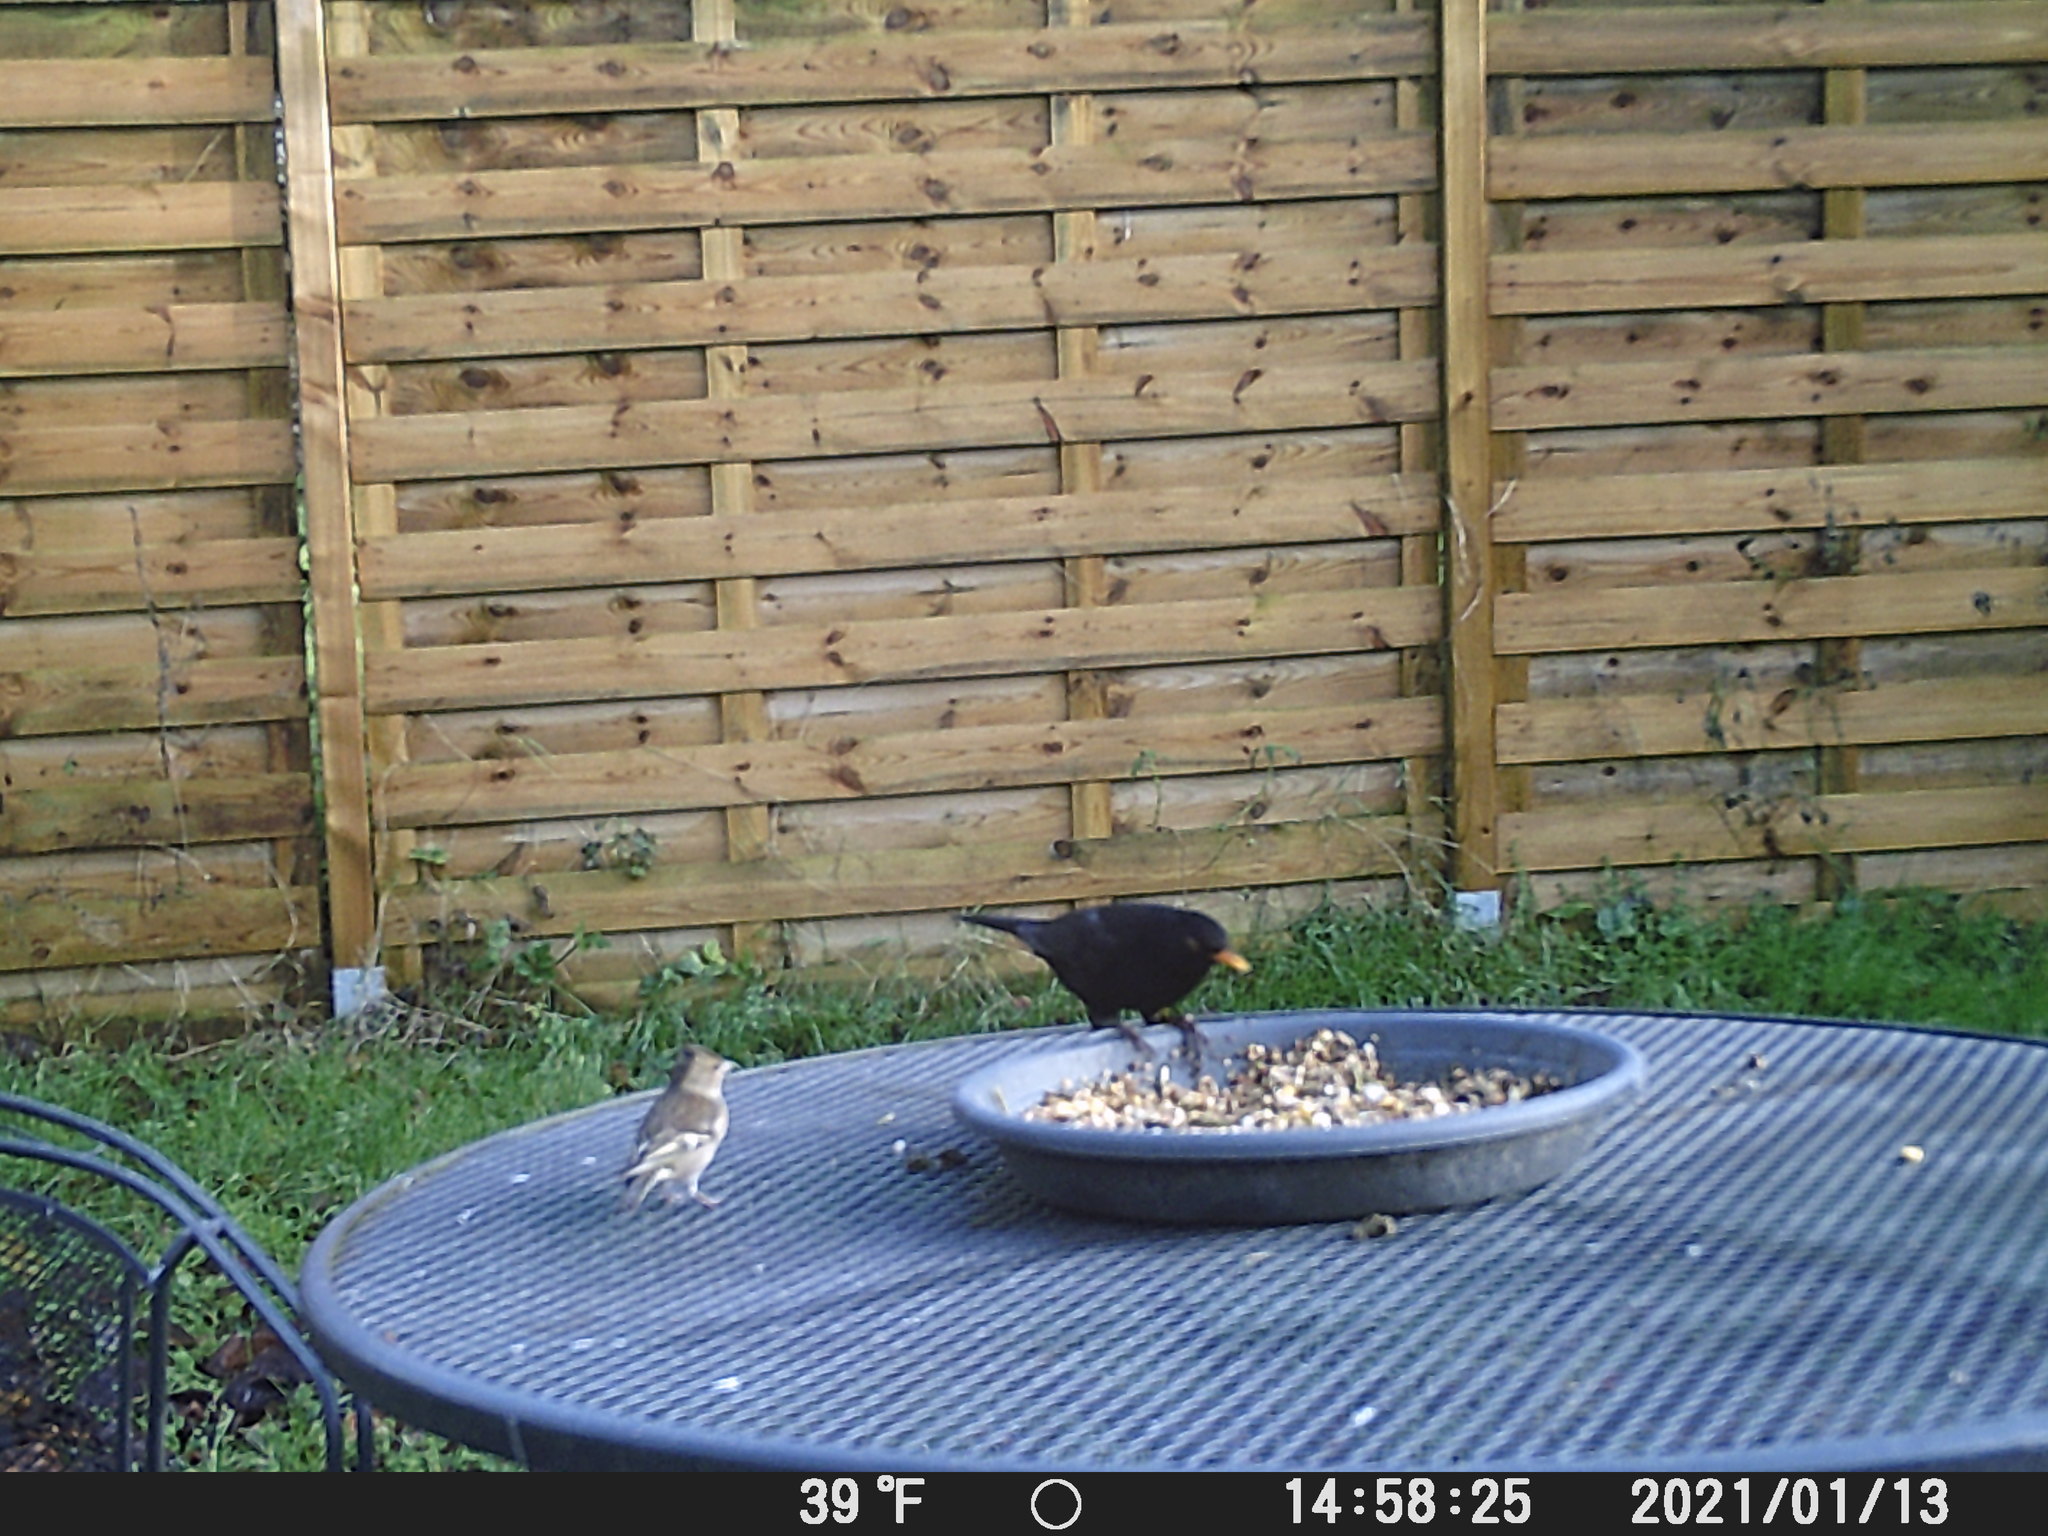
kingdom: Animalia
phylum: Chordata
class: Aves
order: Passeriformes
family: Fringillidae
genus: Fringilla
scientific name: Fringilla coelebs
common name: Common chaffinch
